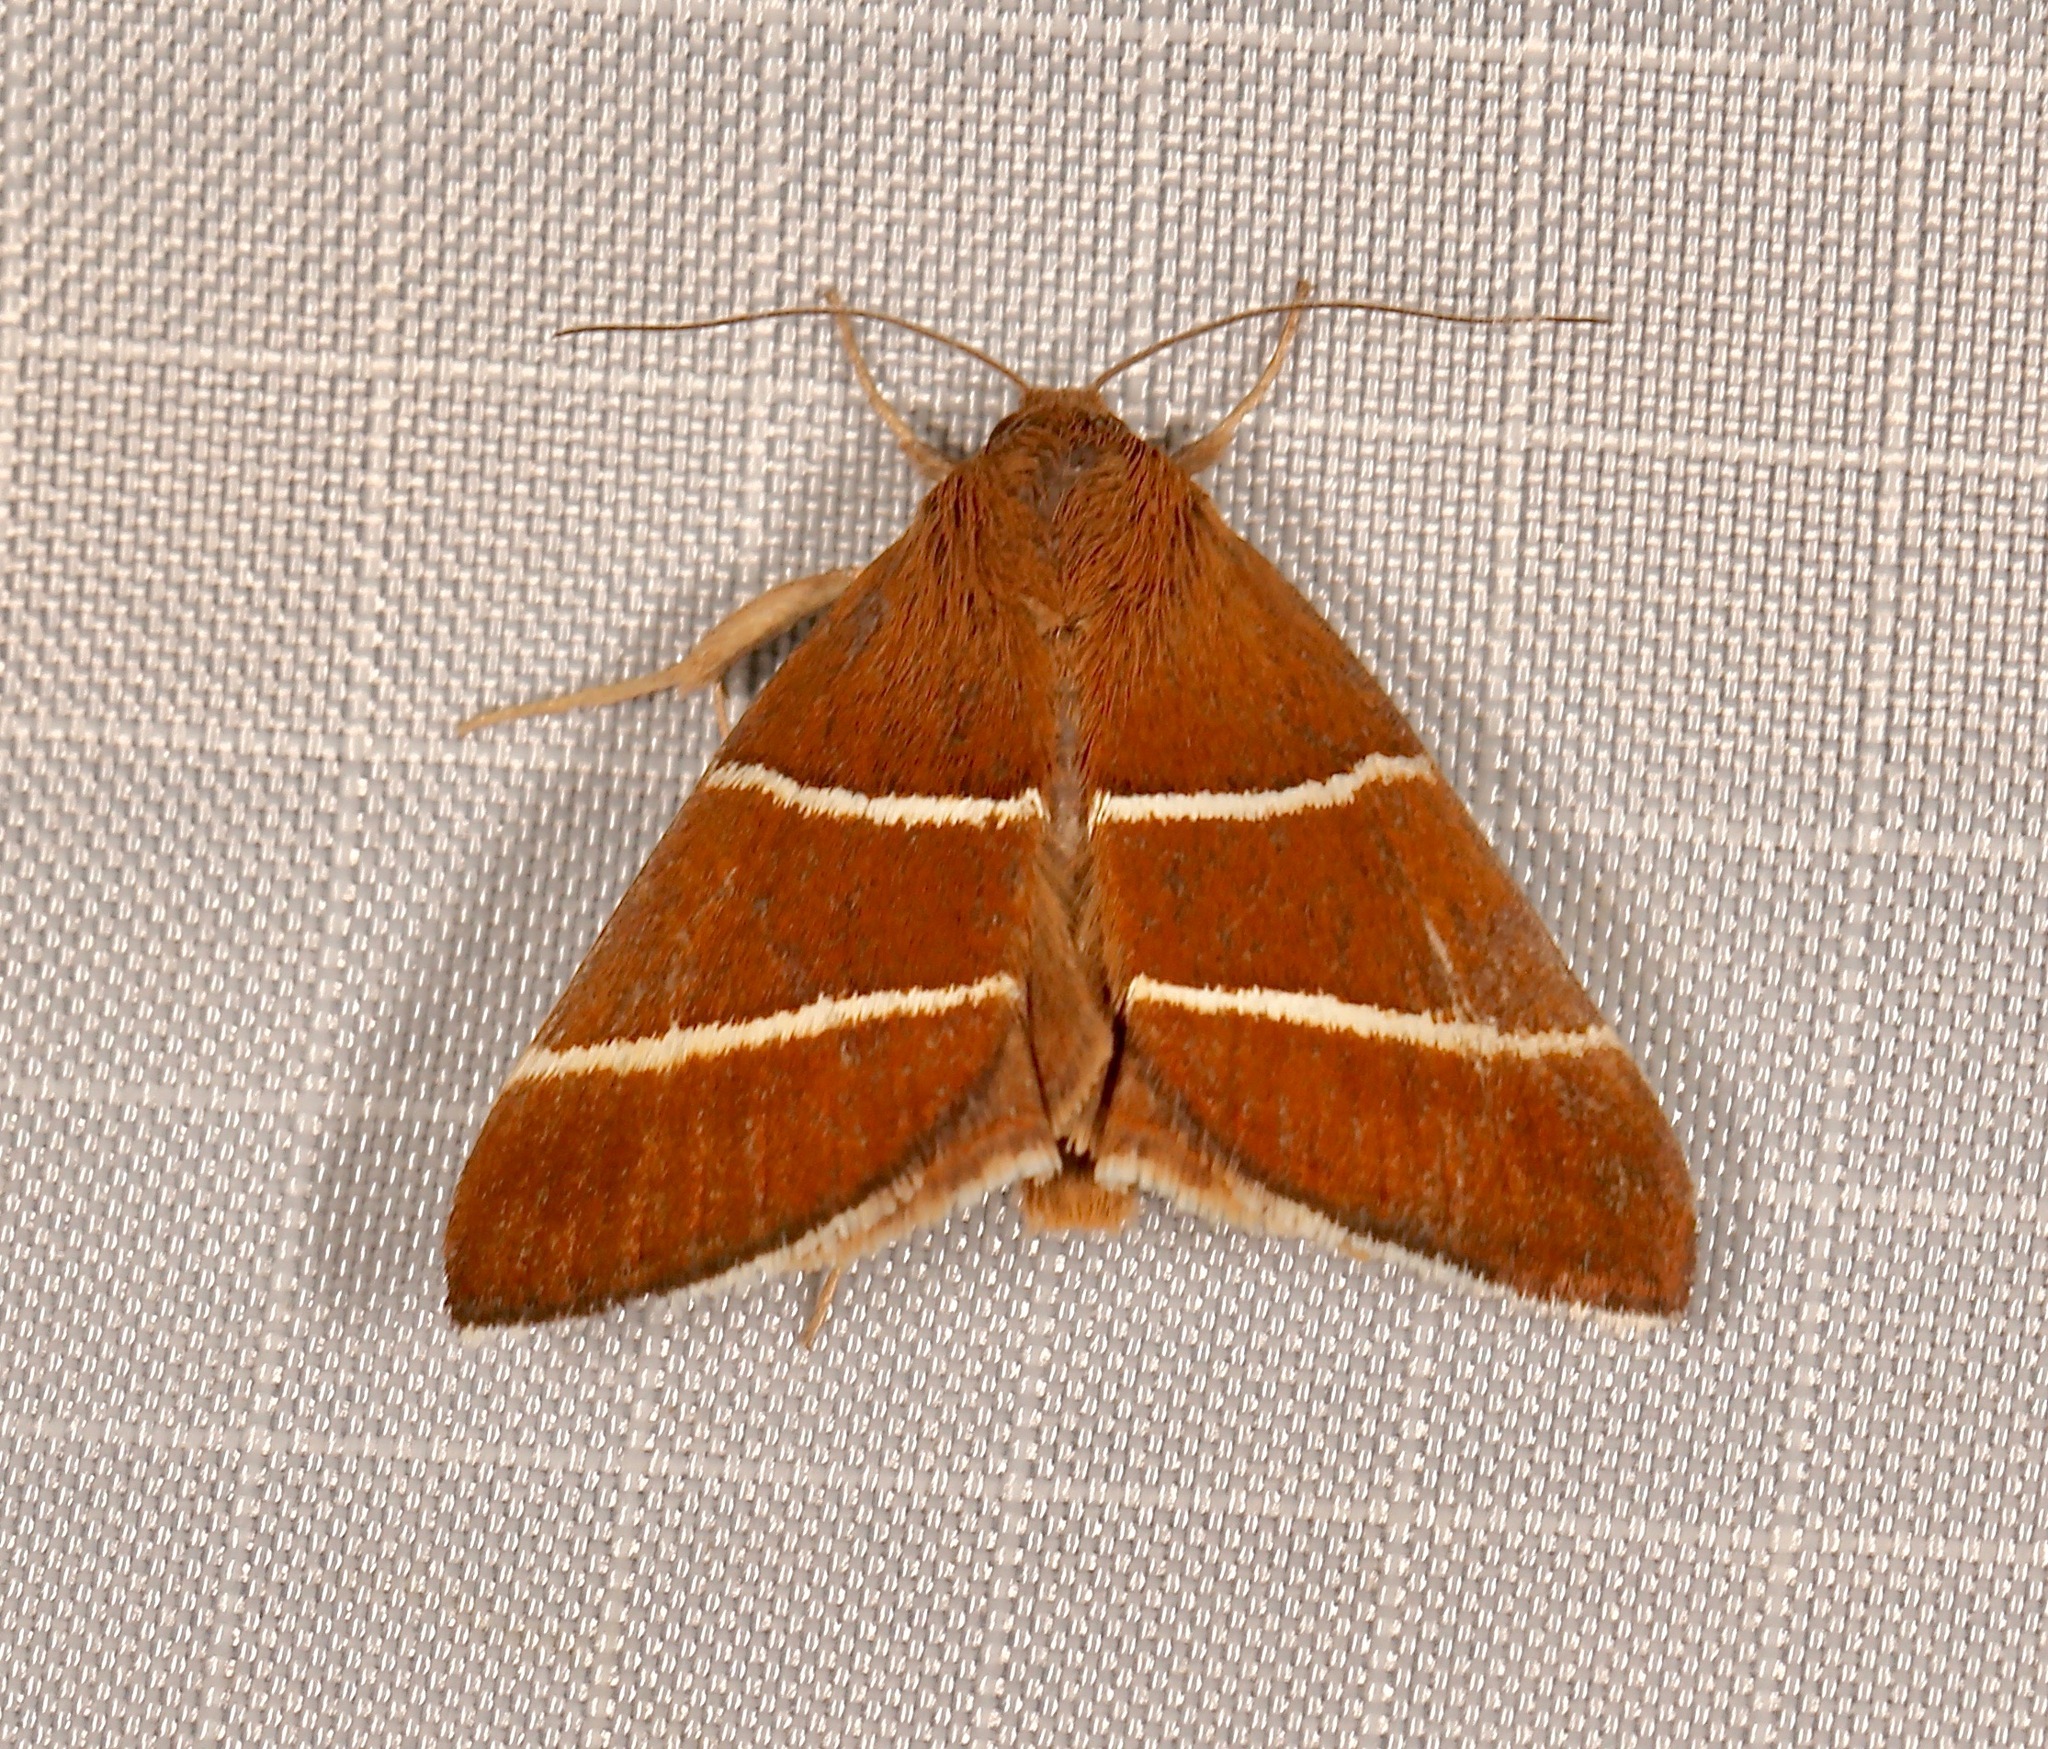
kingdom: Animalia
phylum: Arthropoda
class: Insecta
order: Lepidoptera
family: Erebidae
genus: Argyrostrotis
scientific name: Argyrostrotis quadrifilaris
